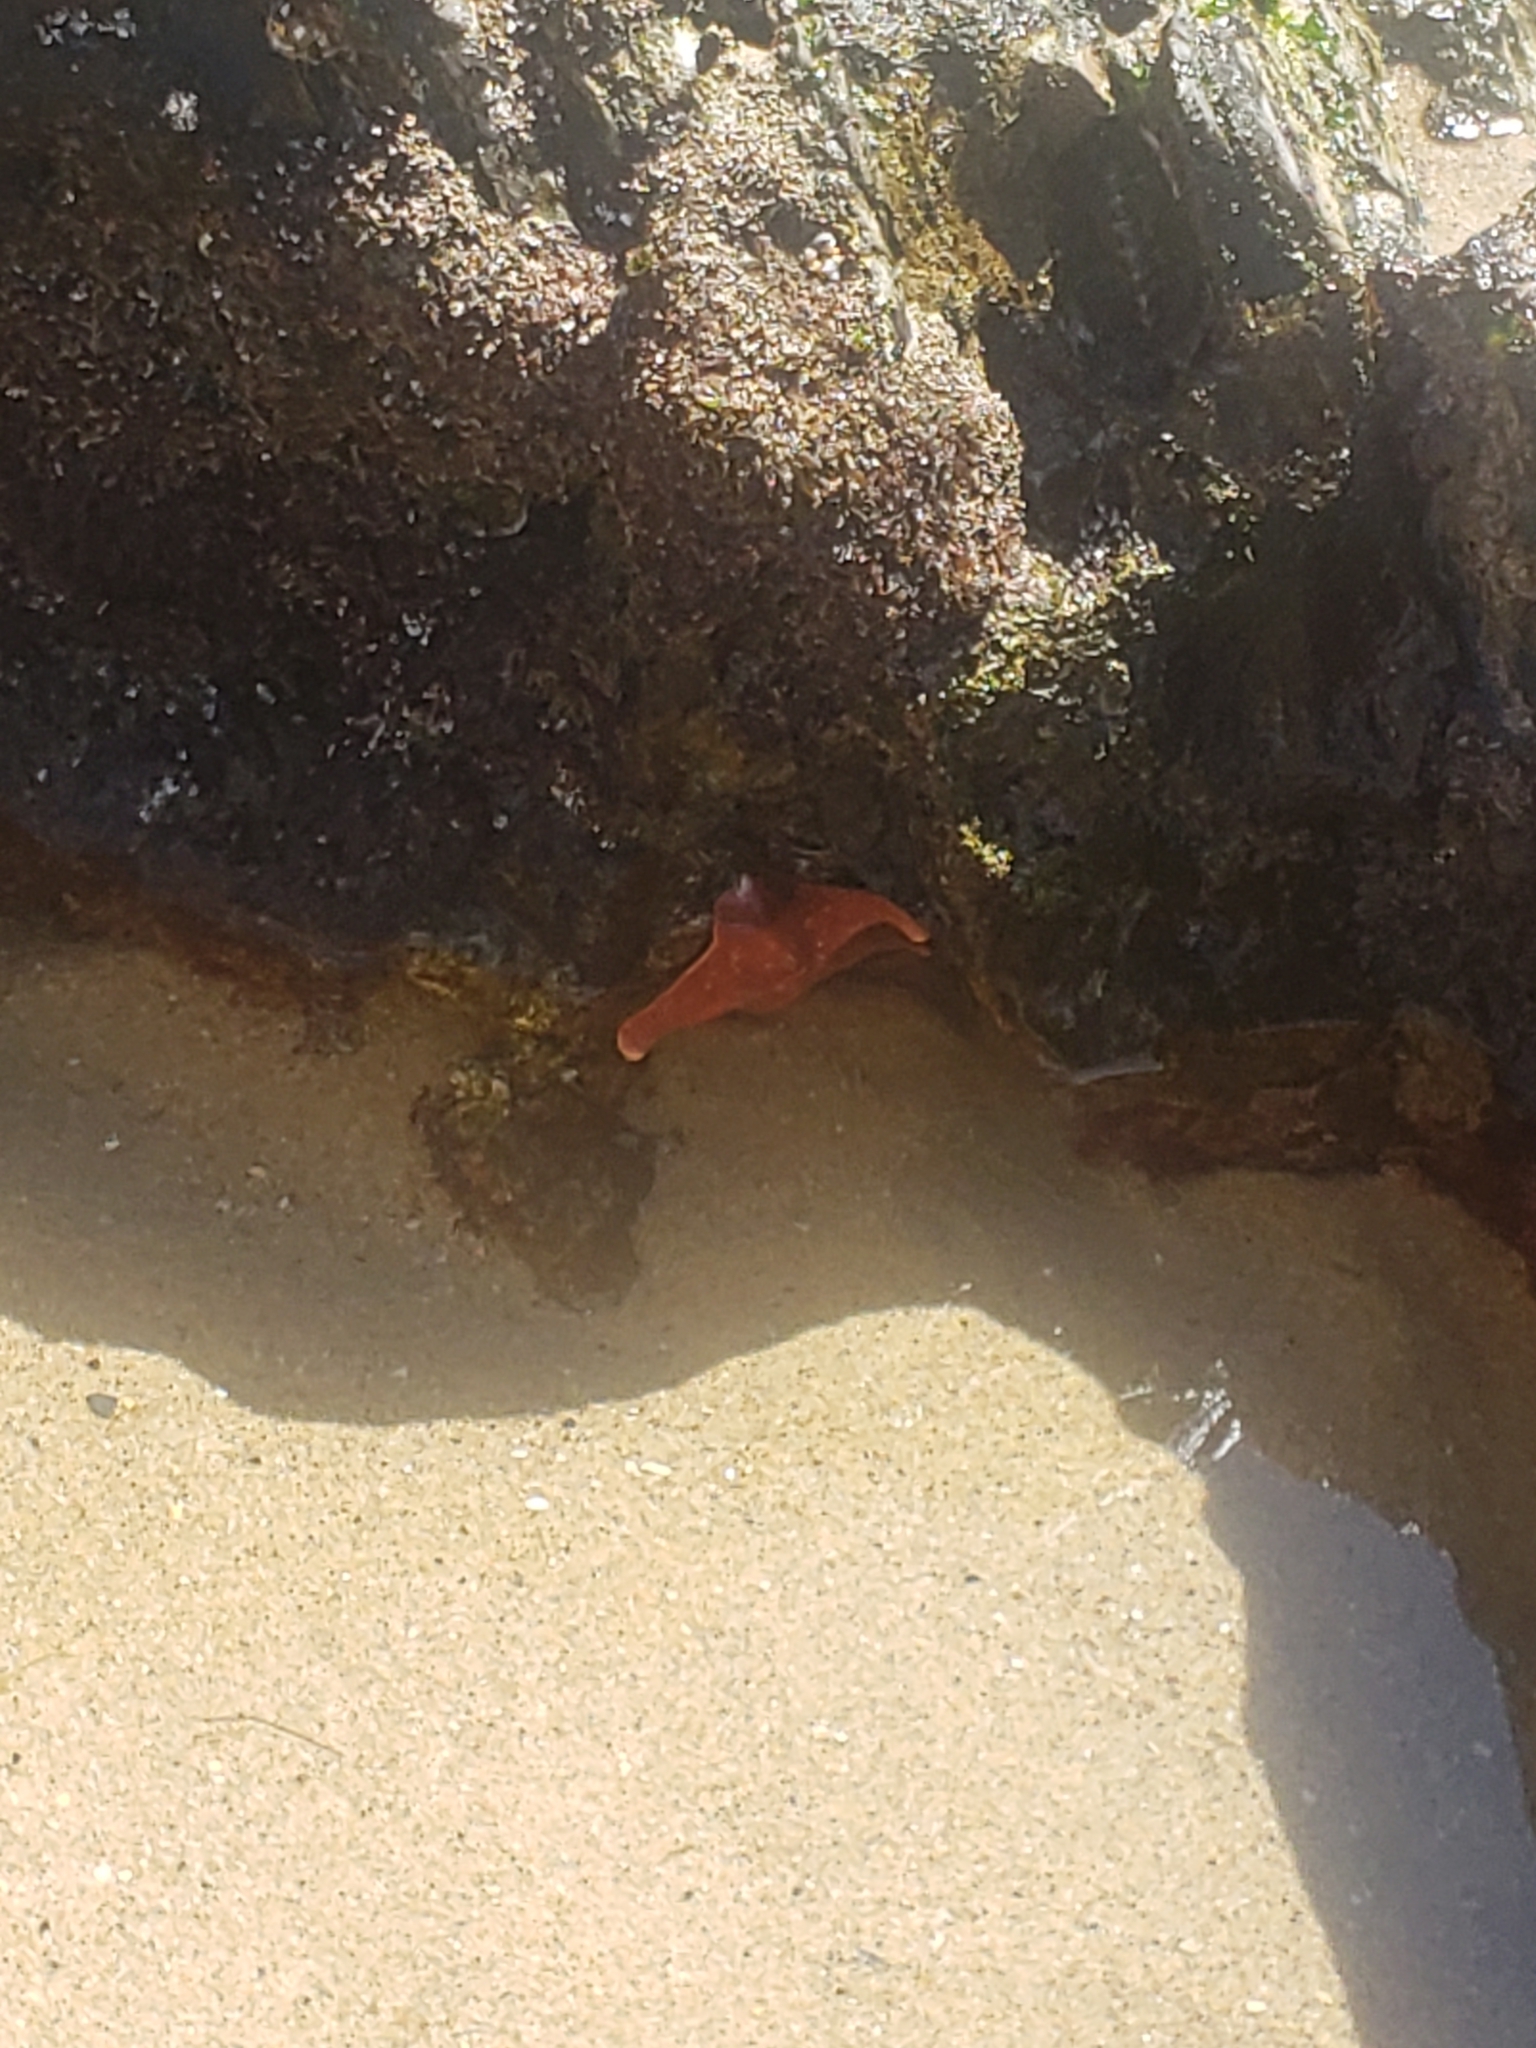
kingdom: Animalia
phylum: Echinodermata
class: Asteroidea
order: Valvatida
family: Asterinidae
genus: Patiria
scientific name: Patiria miniata
